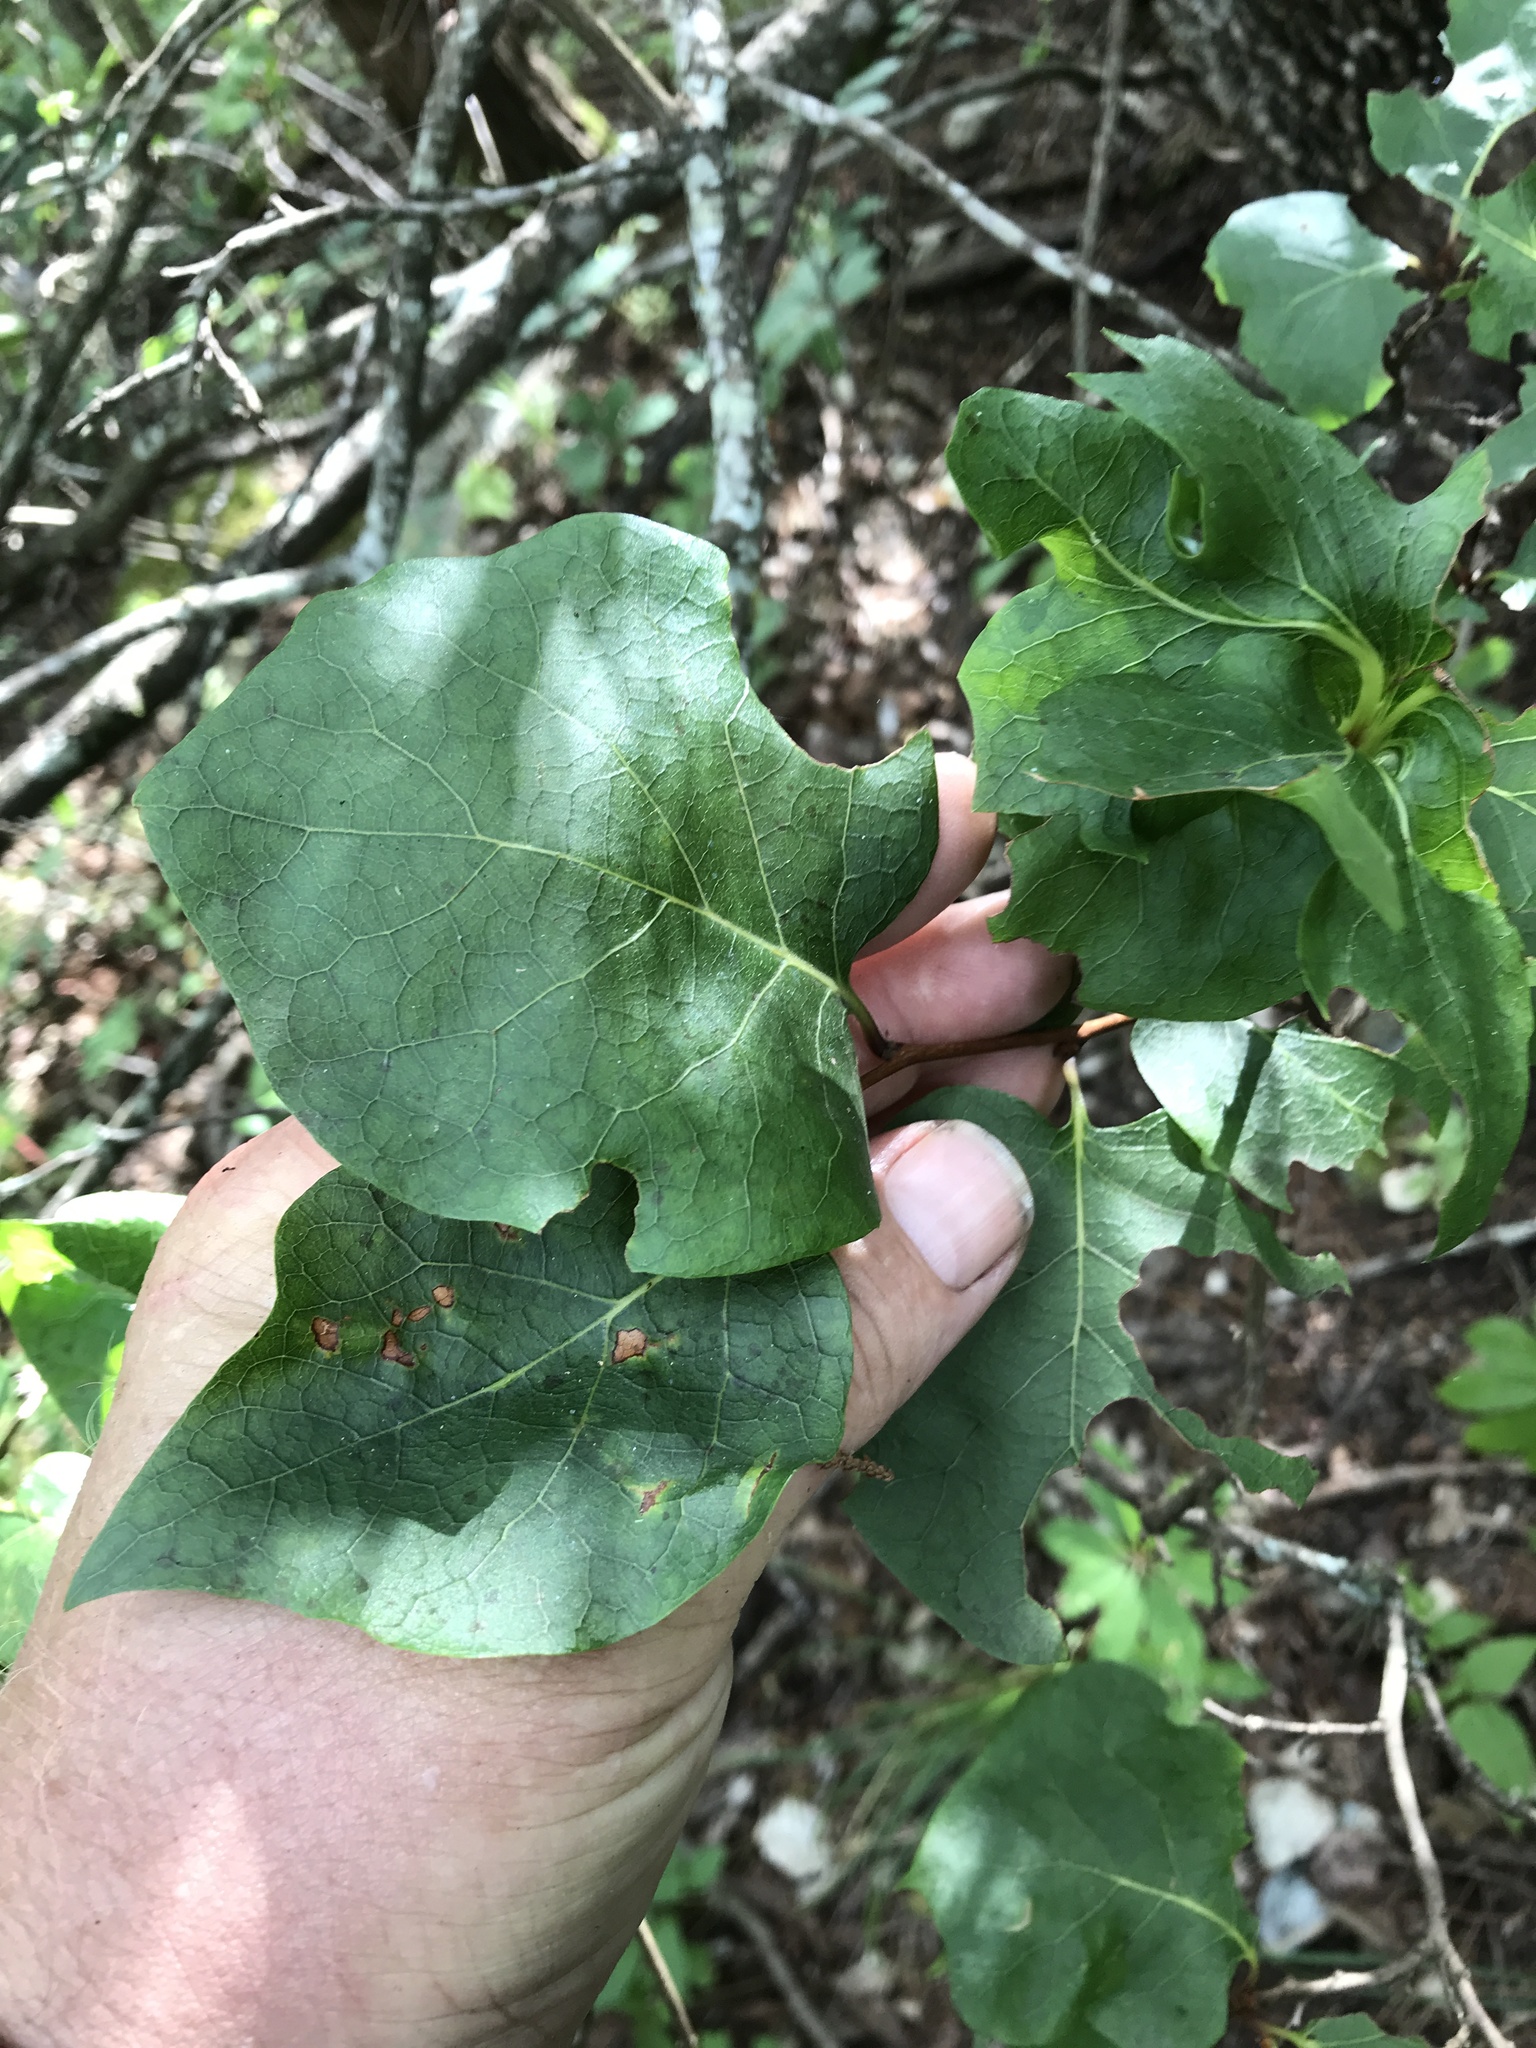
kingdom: Plantae
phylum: Tracheophyta
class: Magnoliopsida
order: Ericales
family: Styracaceae
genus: Styrax
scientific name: Styrax platanifolius
